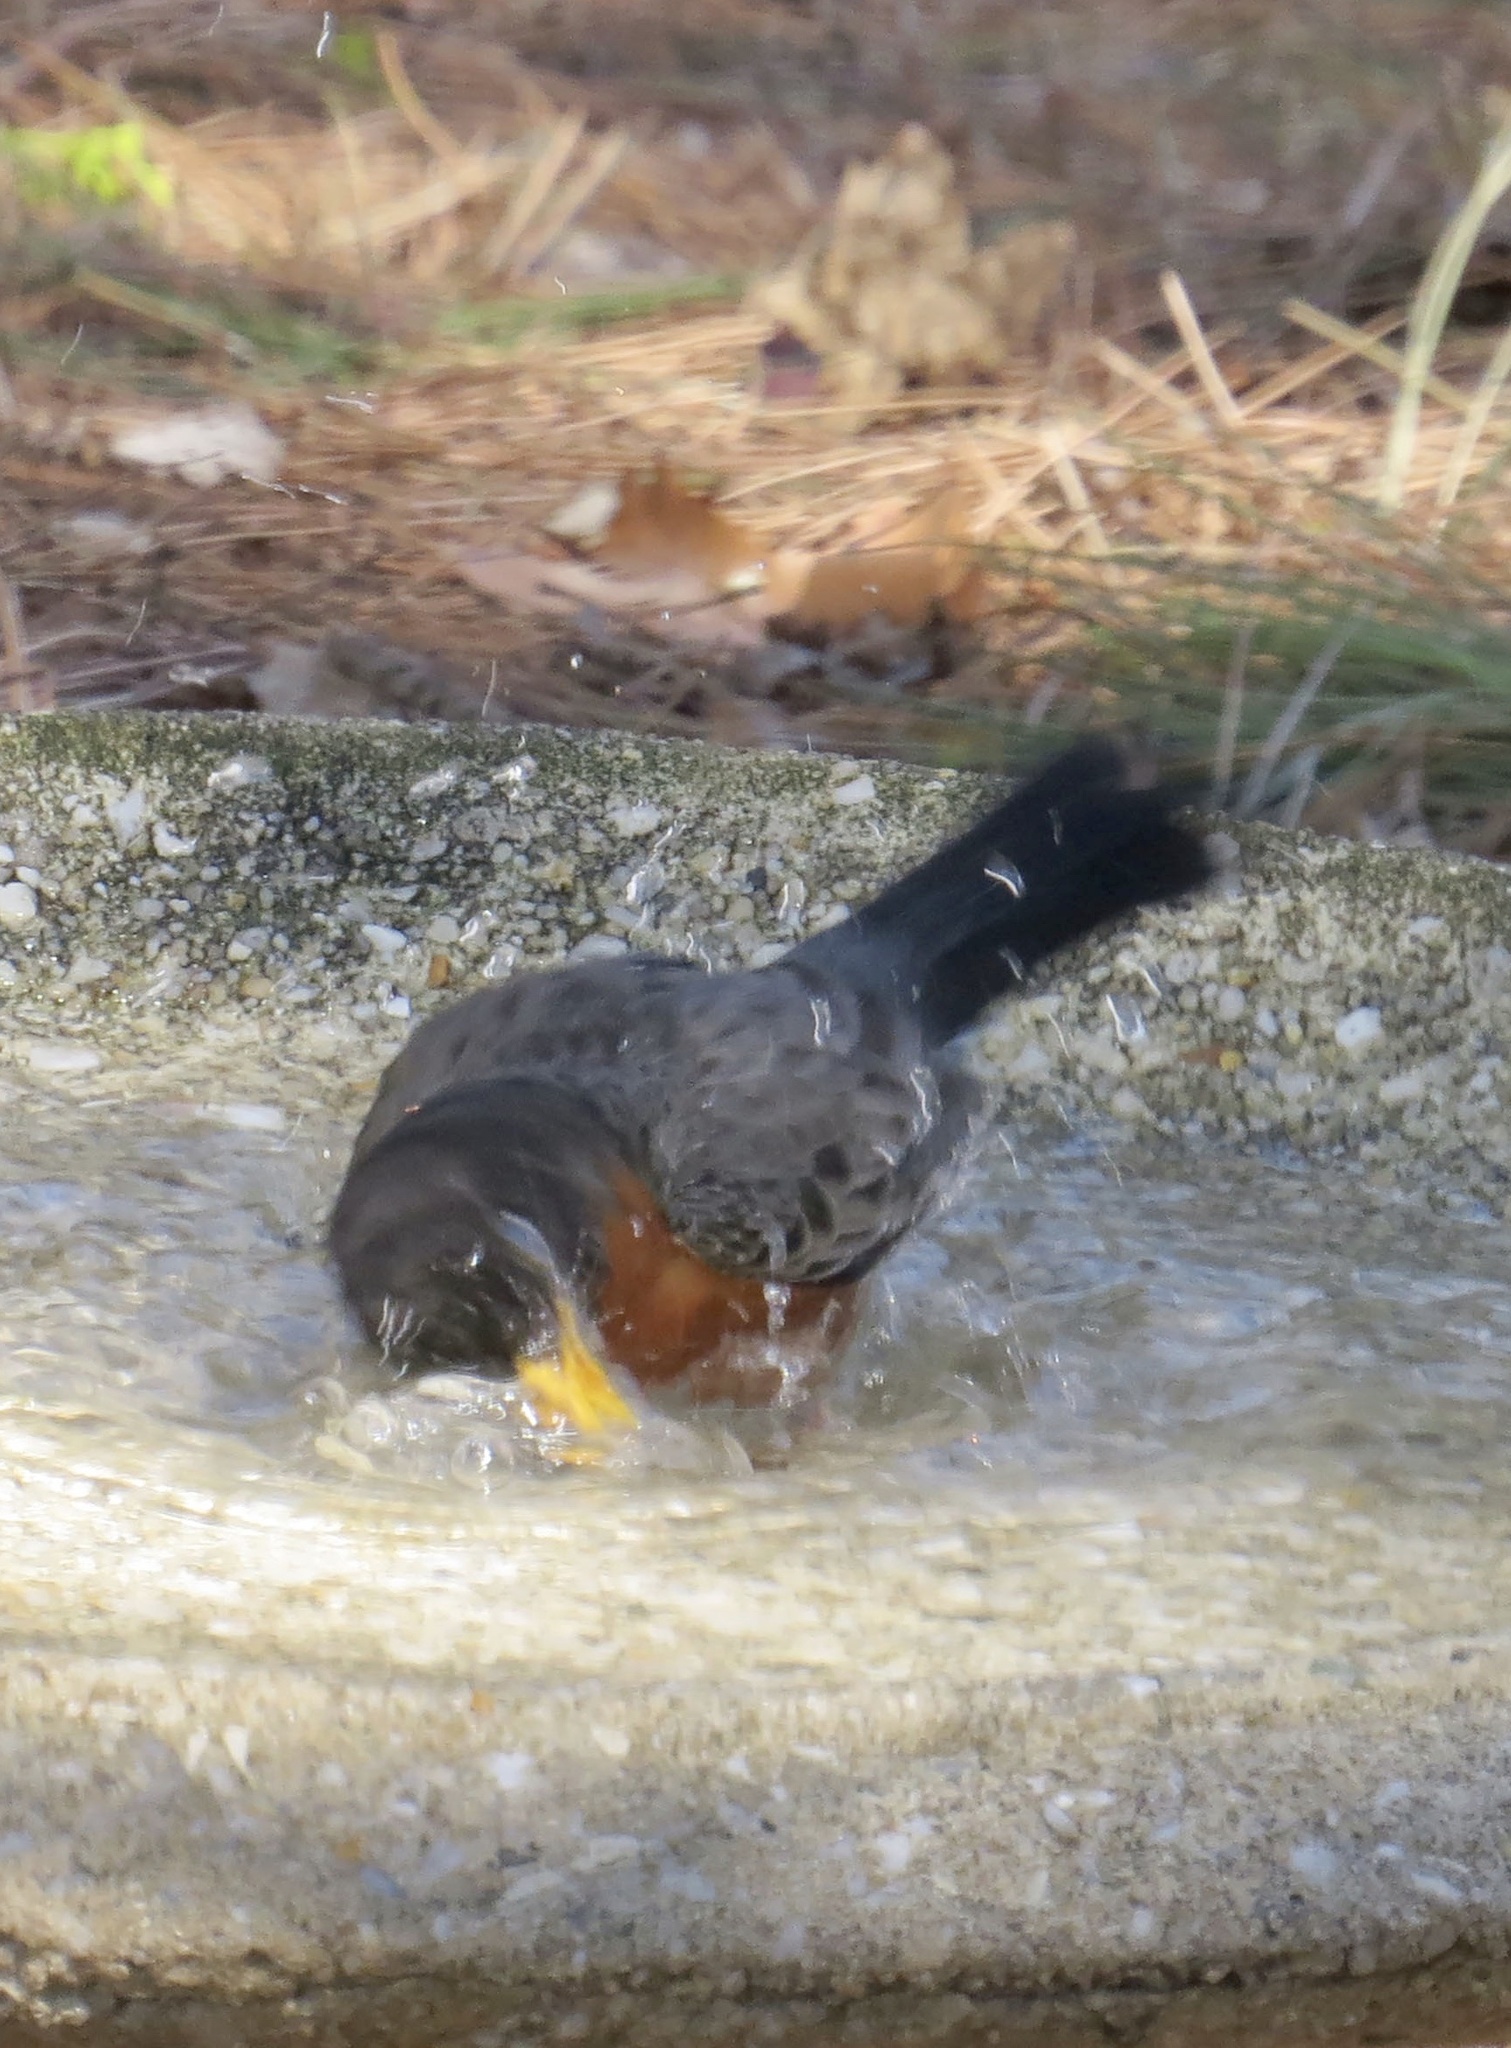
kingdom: Animalia
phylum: Chordata
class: Aves
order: Passeriformes
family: Turdidae
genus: Turdus
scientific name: Turdus migratorius
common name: American robin
